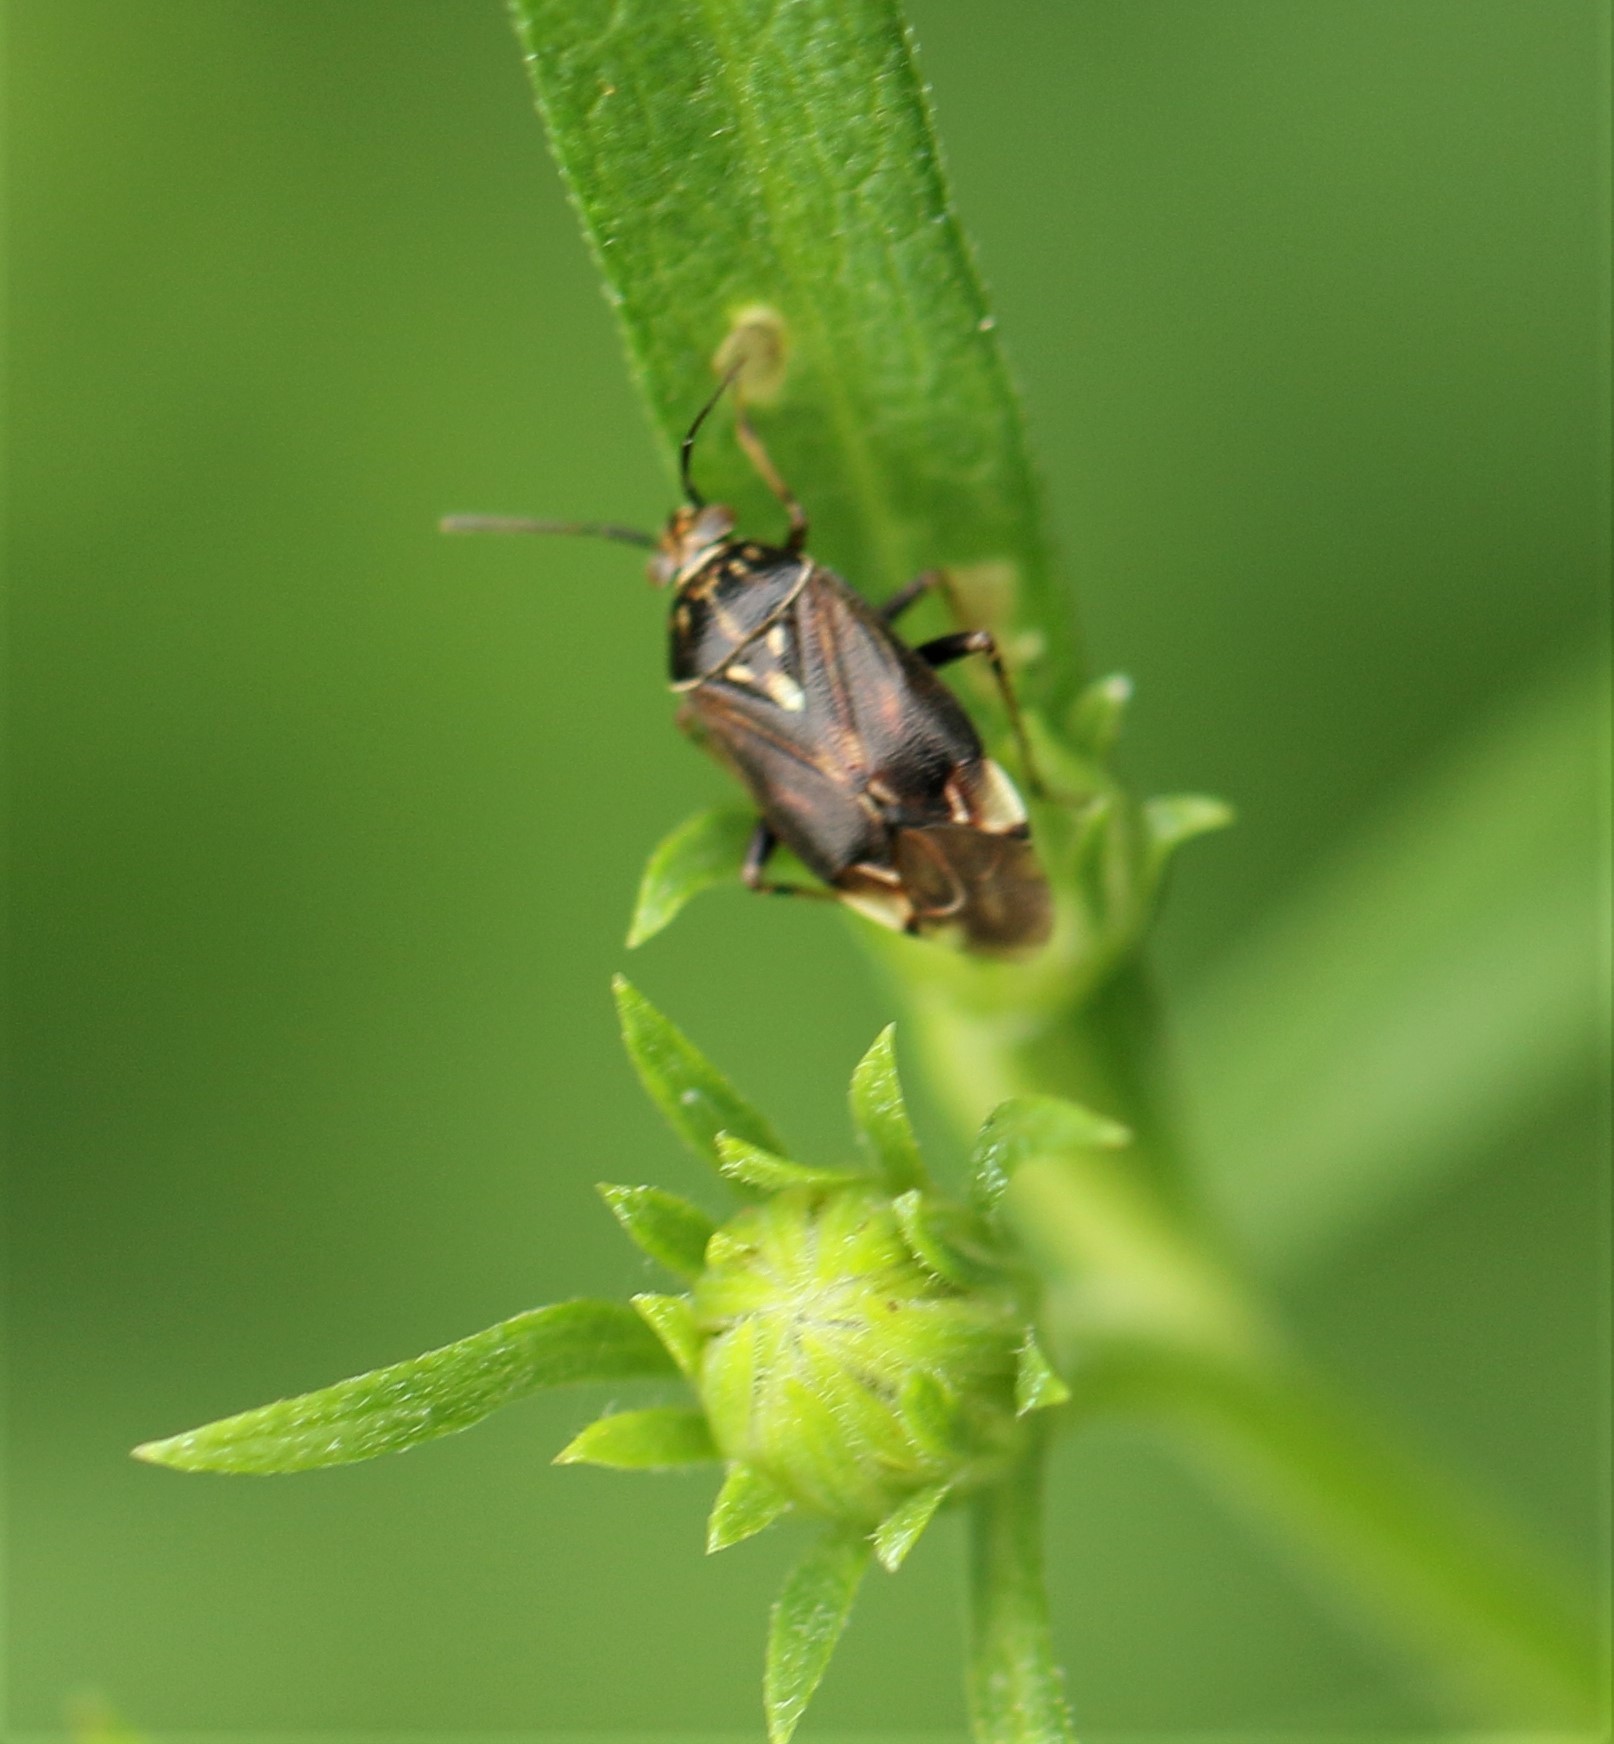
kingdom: Animalia
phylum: Arthropoda
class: Insecta
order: Hemiptera
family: Miridae
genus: Lygus
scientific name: Lygus lineolaris
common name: North american tarnished plant bug
